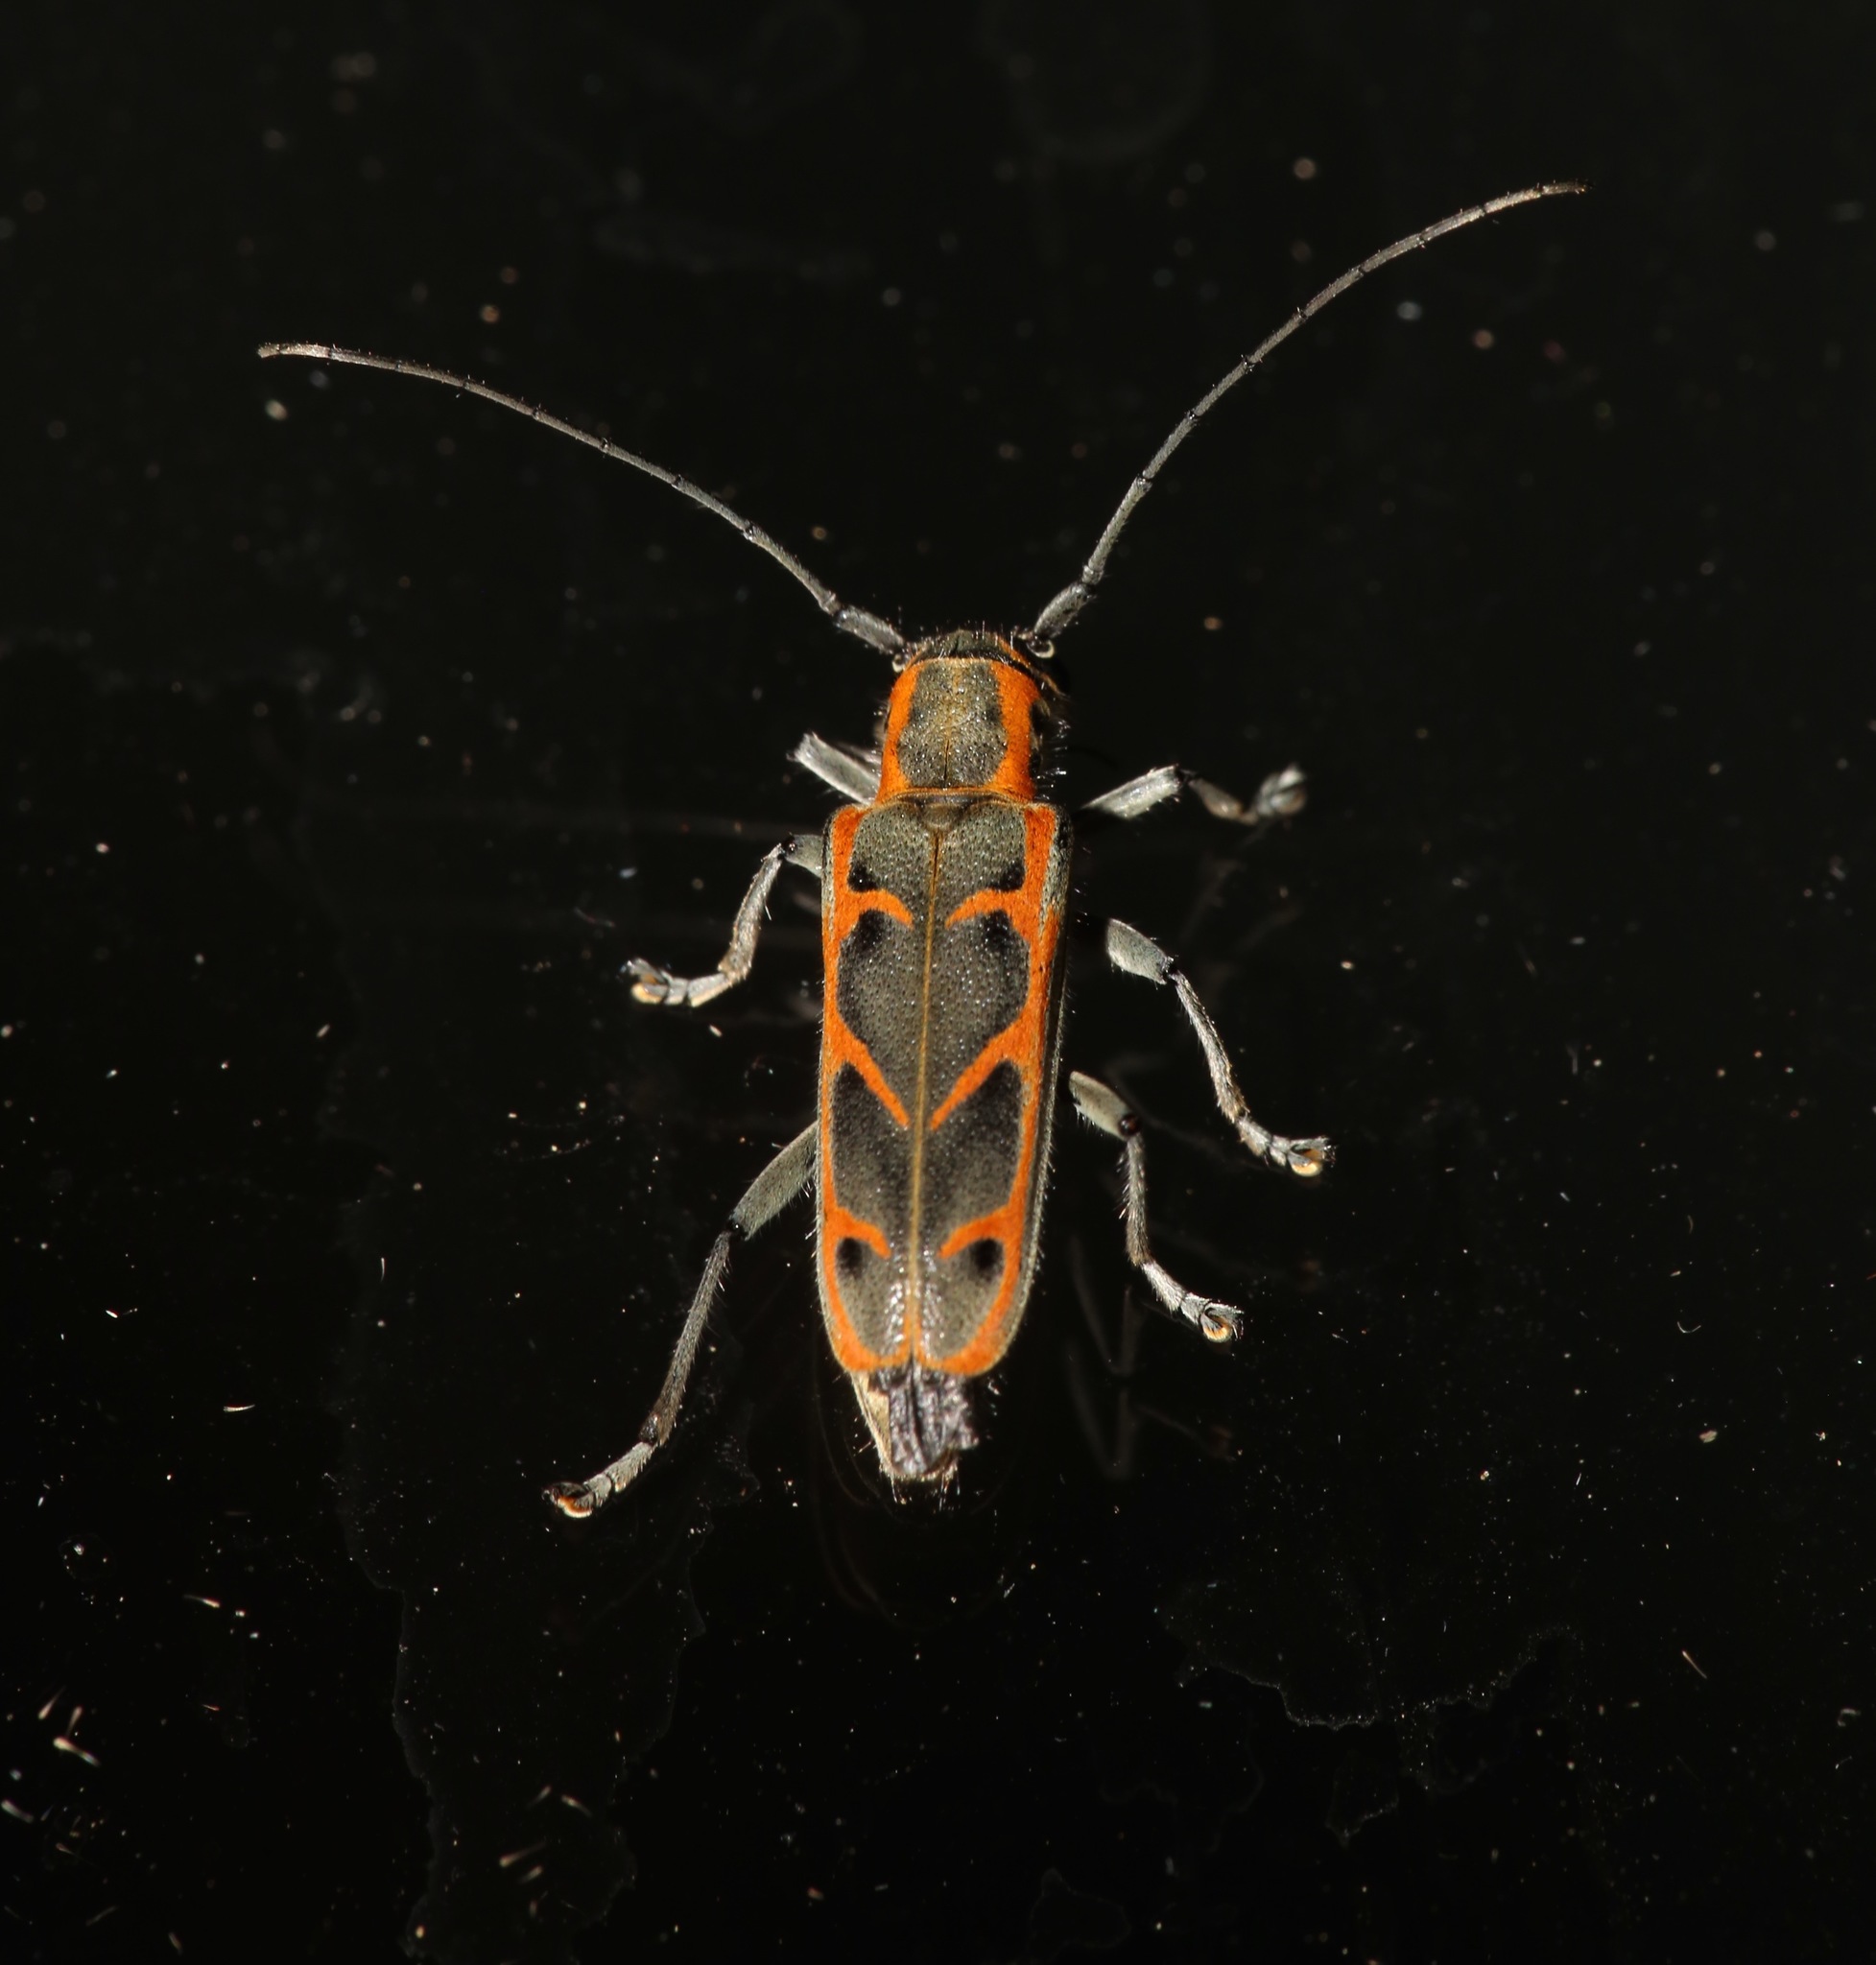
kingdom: Animalia
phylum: Arthropoda
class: Insecta
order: Coleoptera
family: Cerambycidae
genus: Saperda
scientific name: Saperda tridentata
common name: Elm borer
